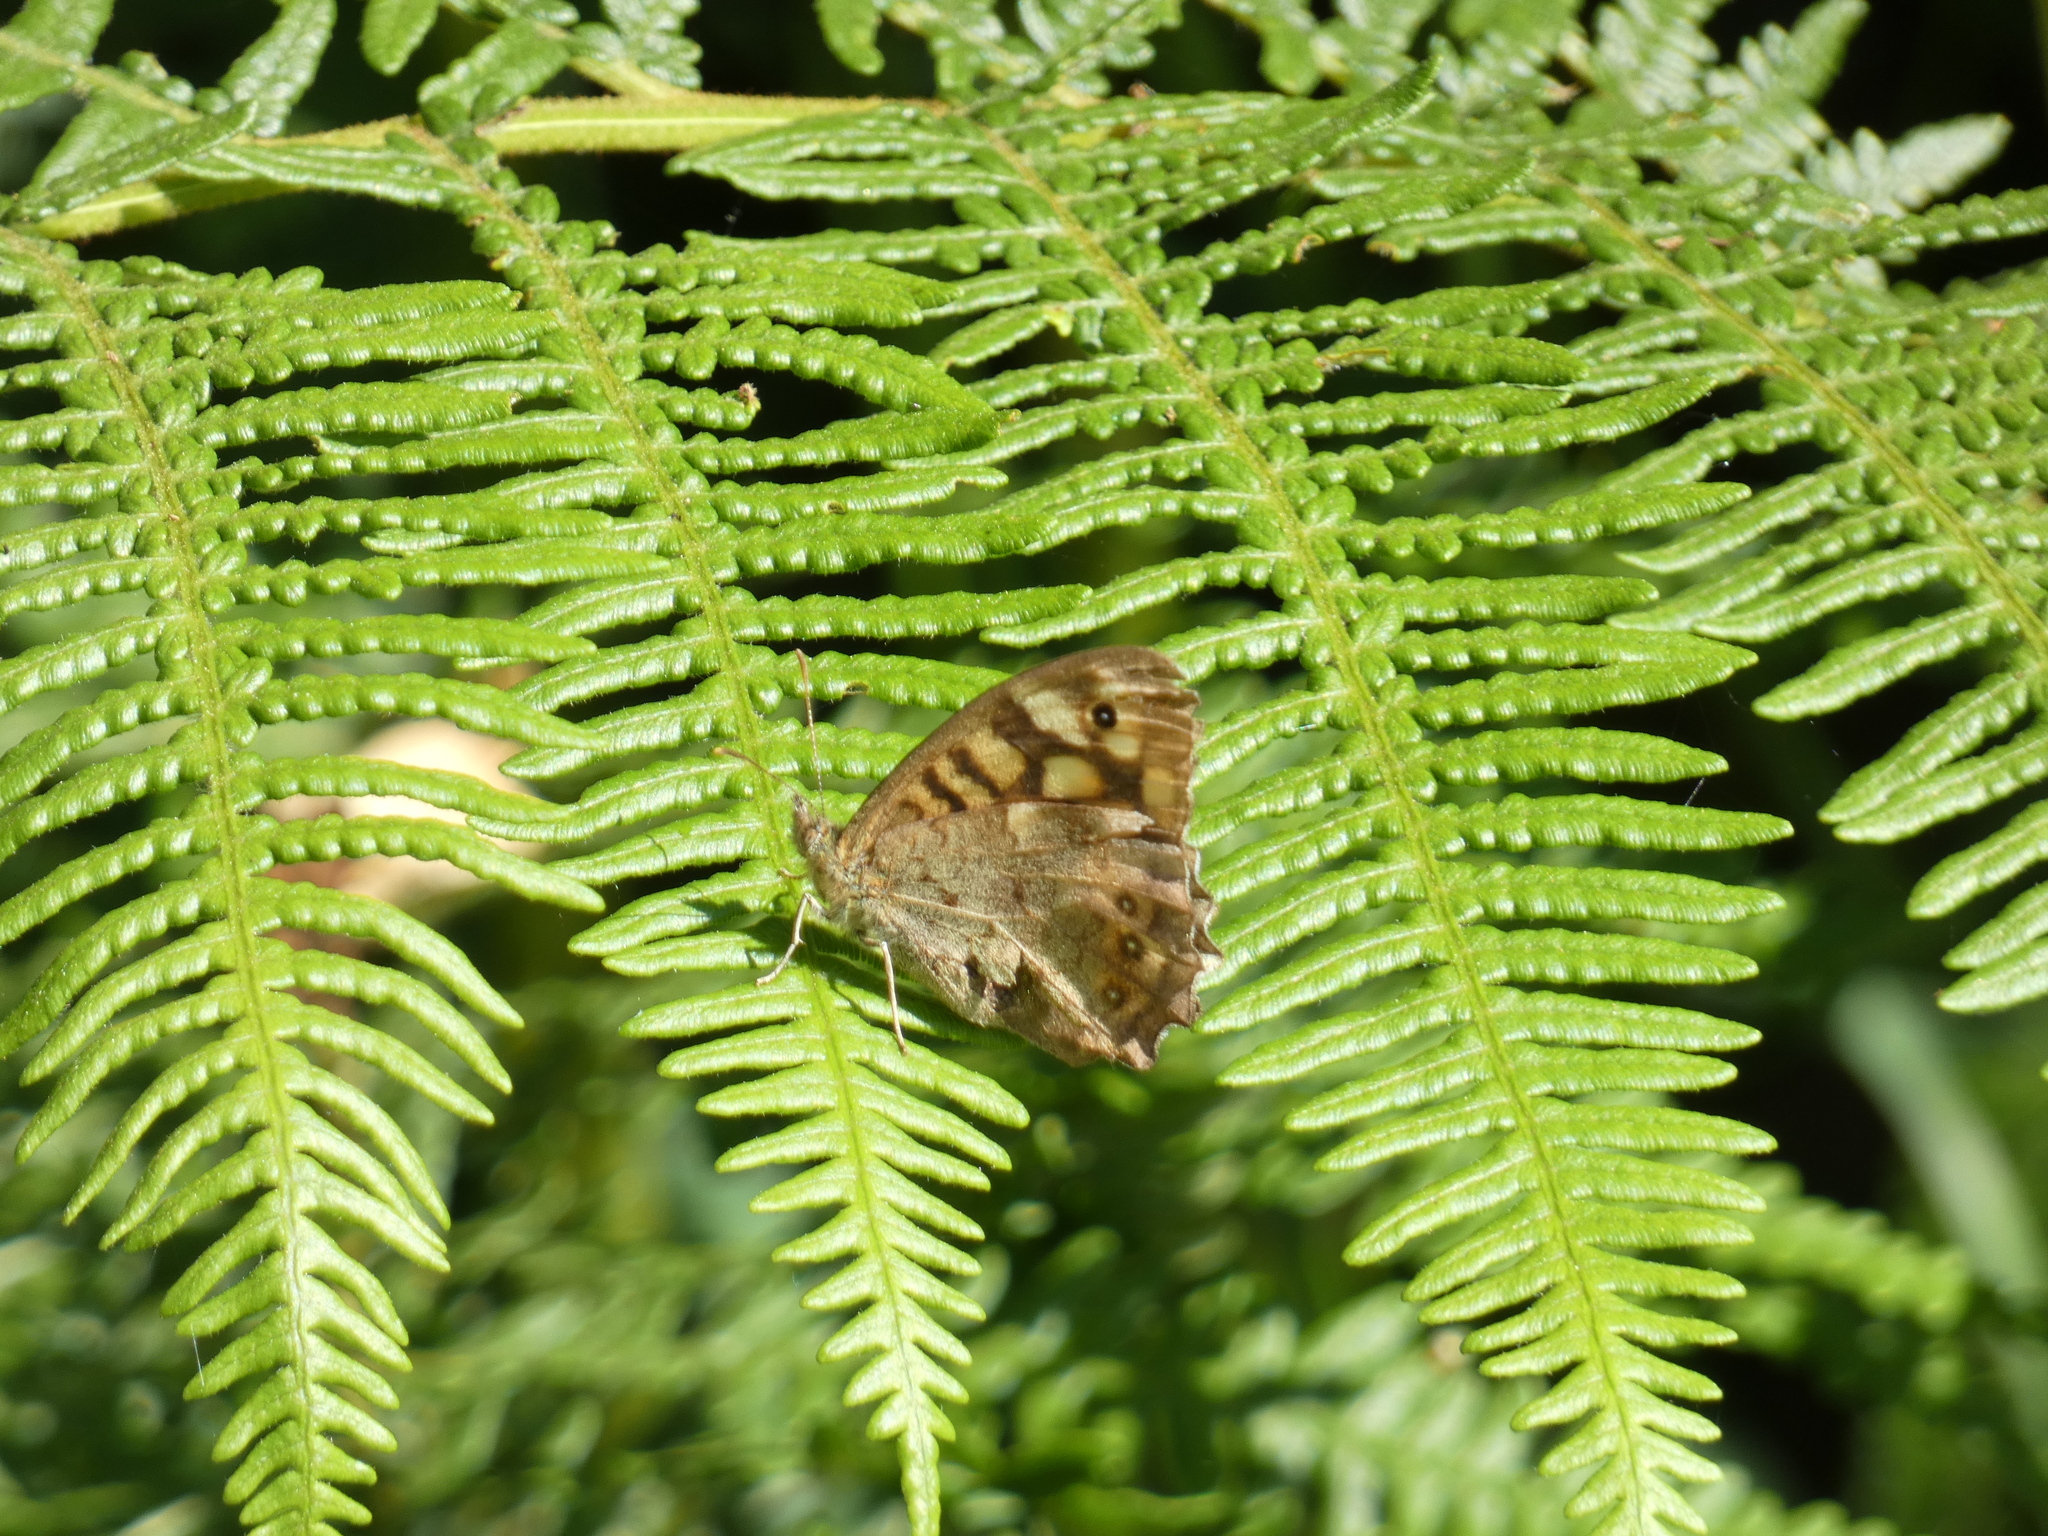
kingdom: Animalia
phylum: Arthropoda
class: Insecta
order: Lepidoptera
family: Nymphalidae
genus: Pararge
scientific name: Pararge aegeria
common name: Speckled wood
